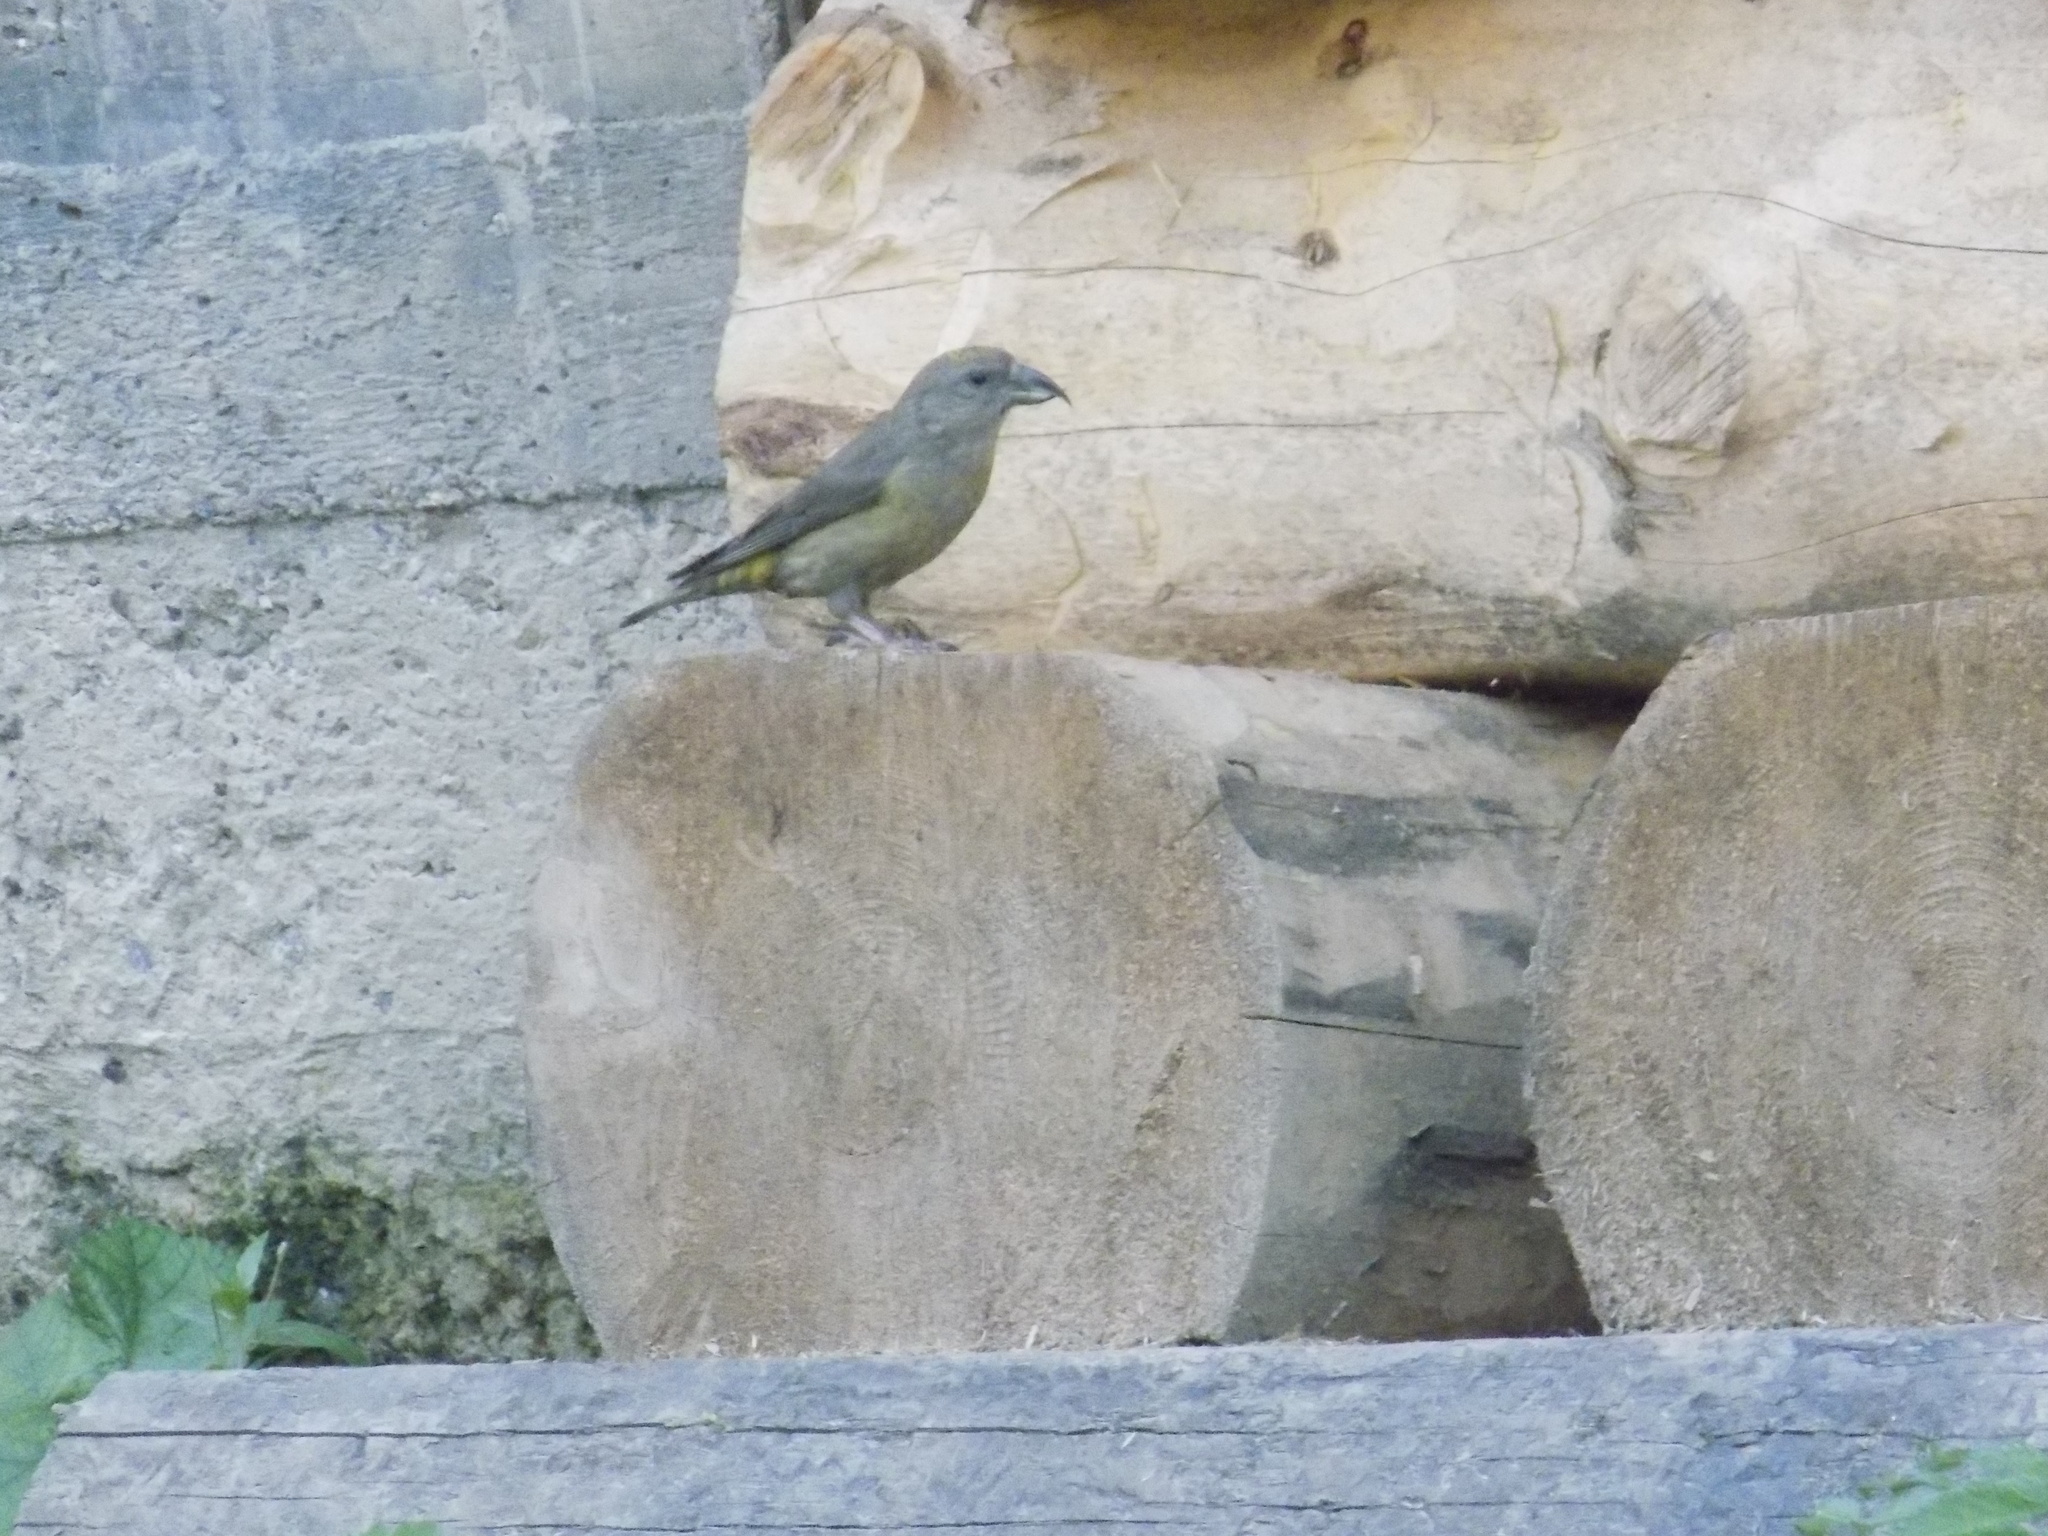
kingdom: Animalia
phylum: Chordata
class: Aves
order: Passeriformes
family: Fringillidae
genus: Loxia
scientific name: Loxia curvirostra
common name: Red crossbill
